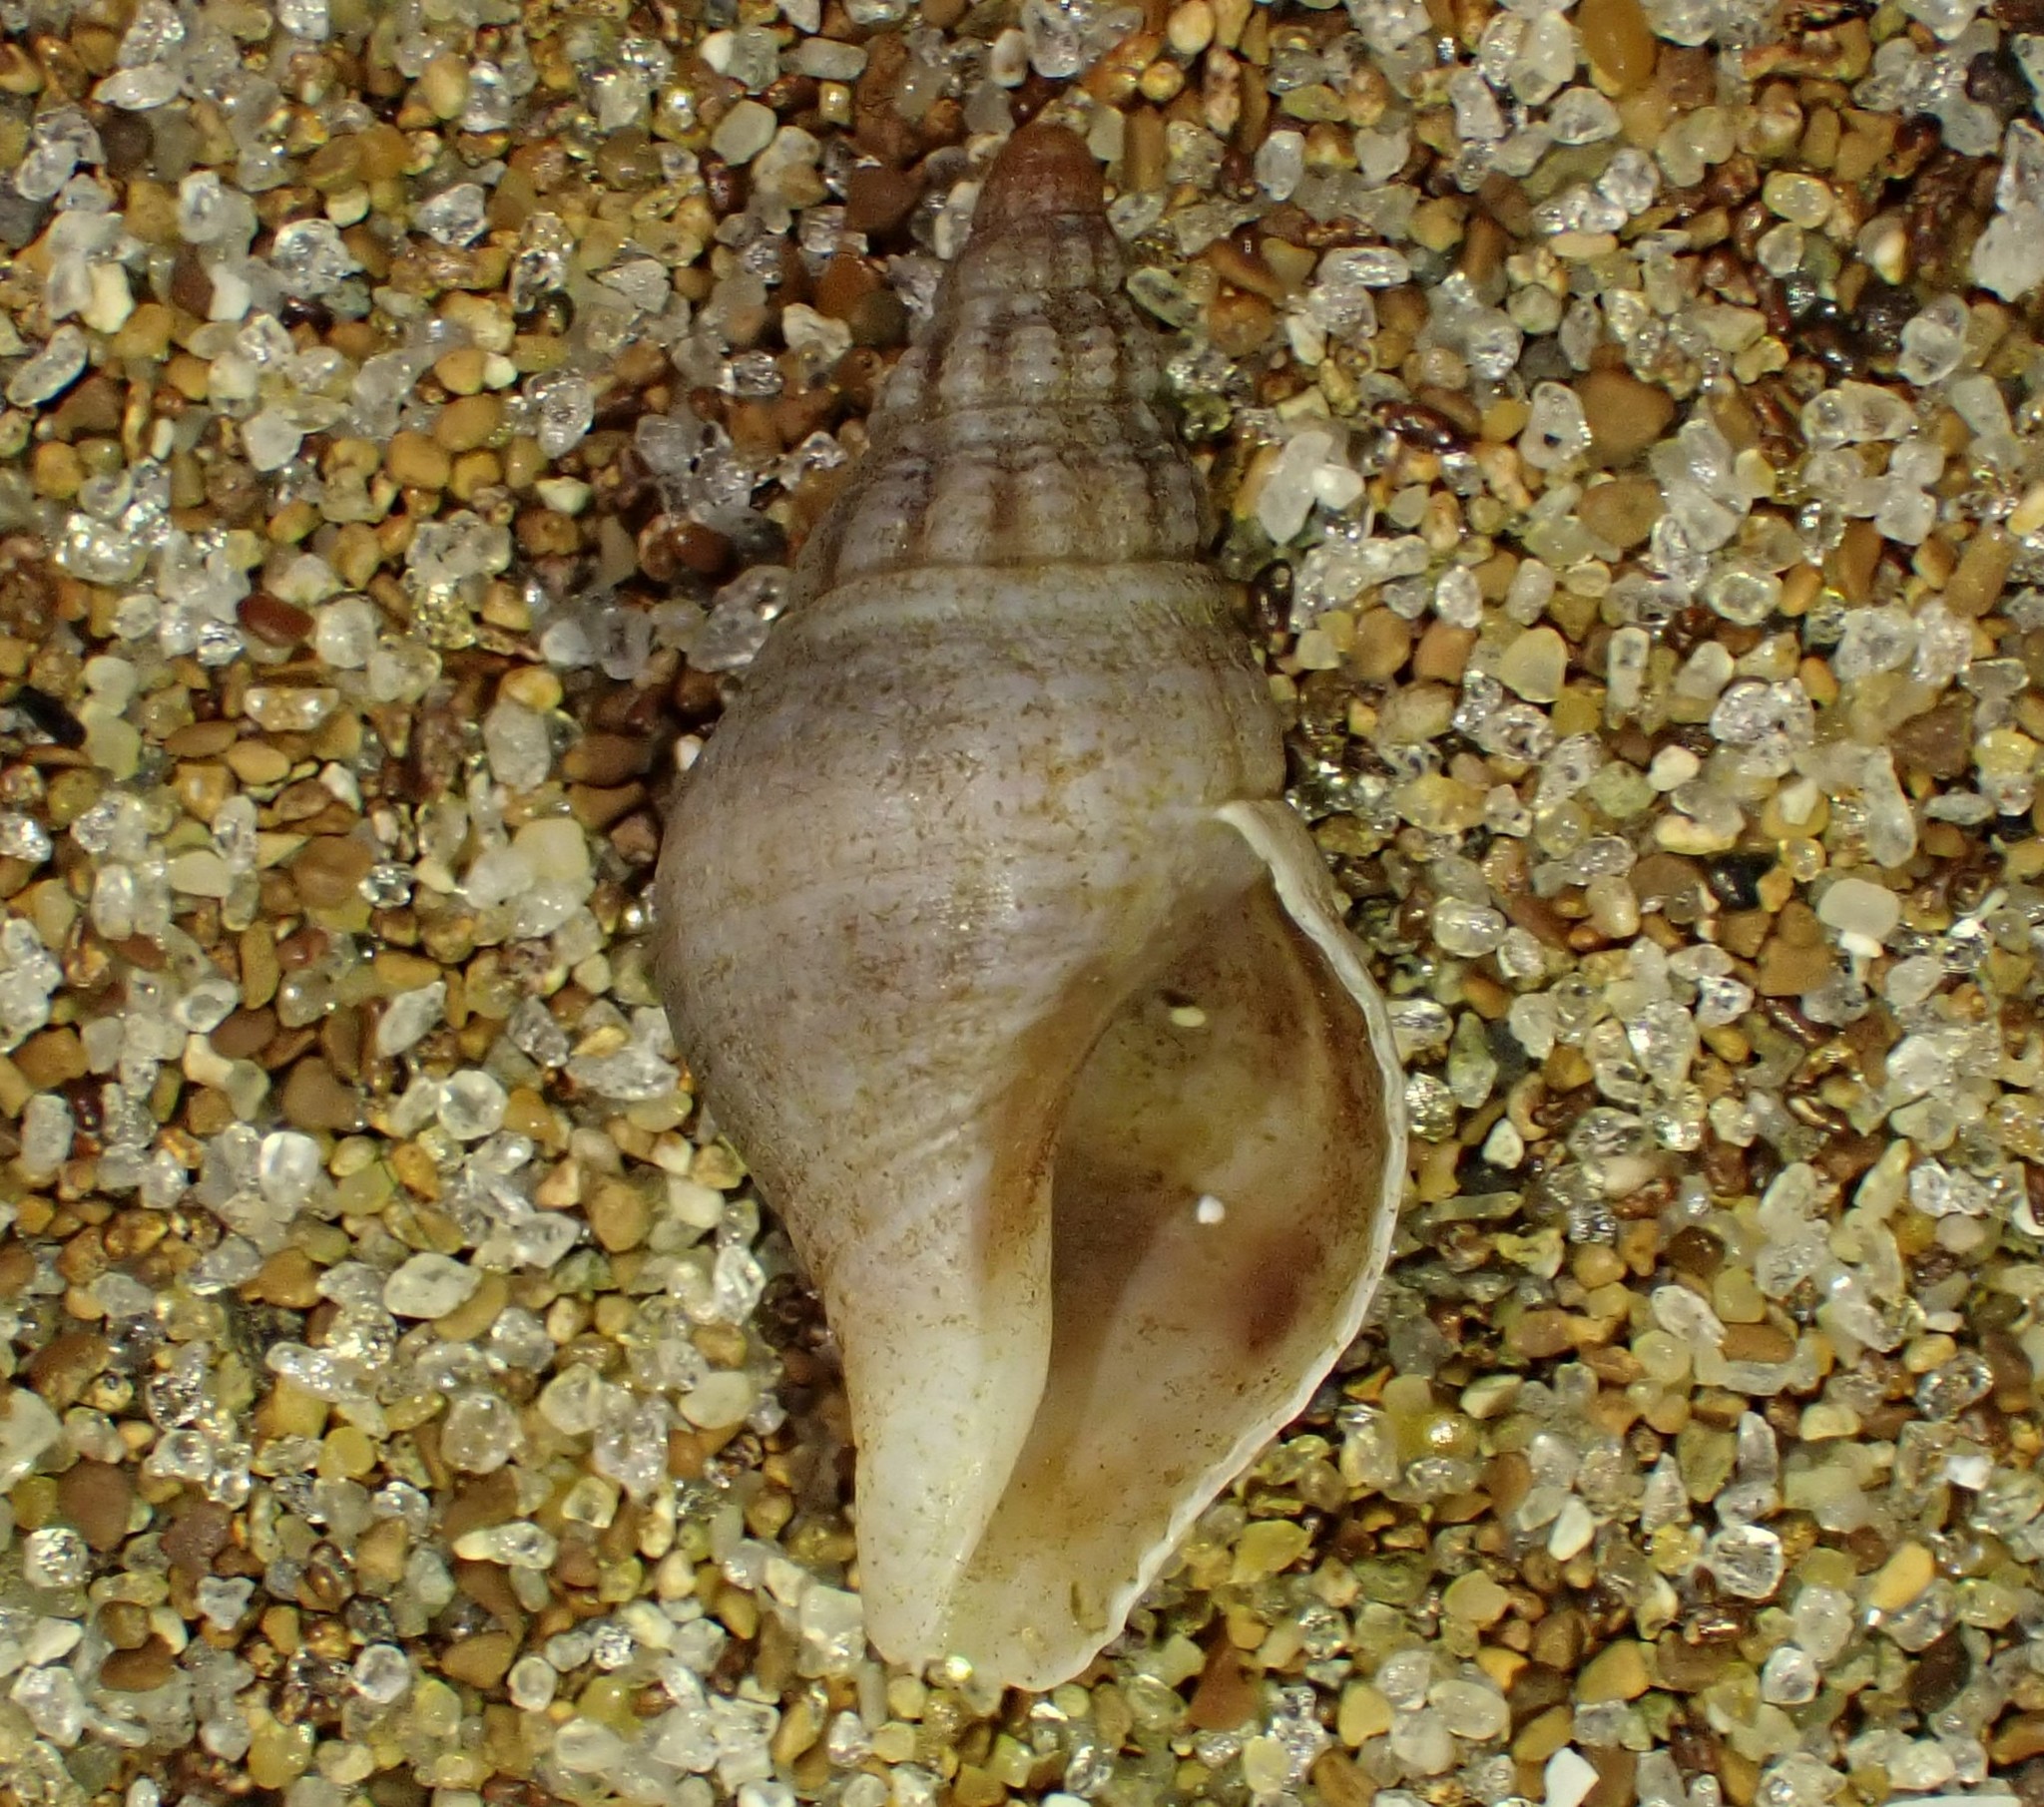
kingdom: Animalia
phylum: Mollusca
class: Gastropoda
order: Neogastropoda
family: Tudiclidae
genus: Buccinulum
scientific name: Buccinulum vittatum
